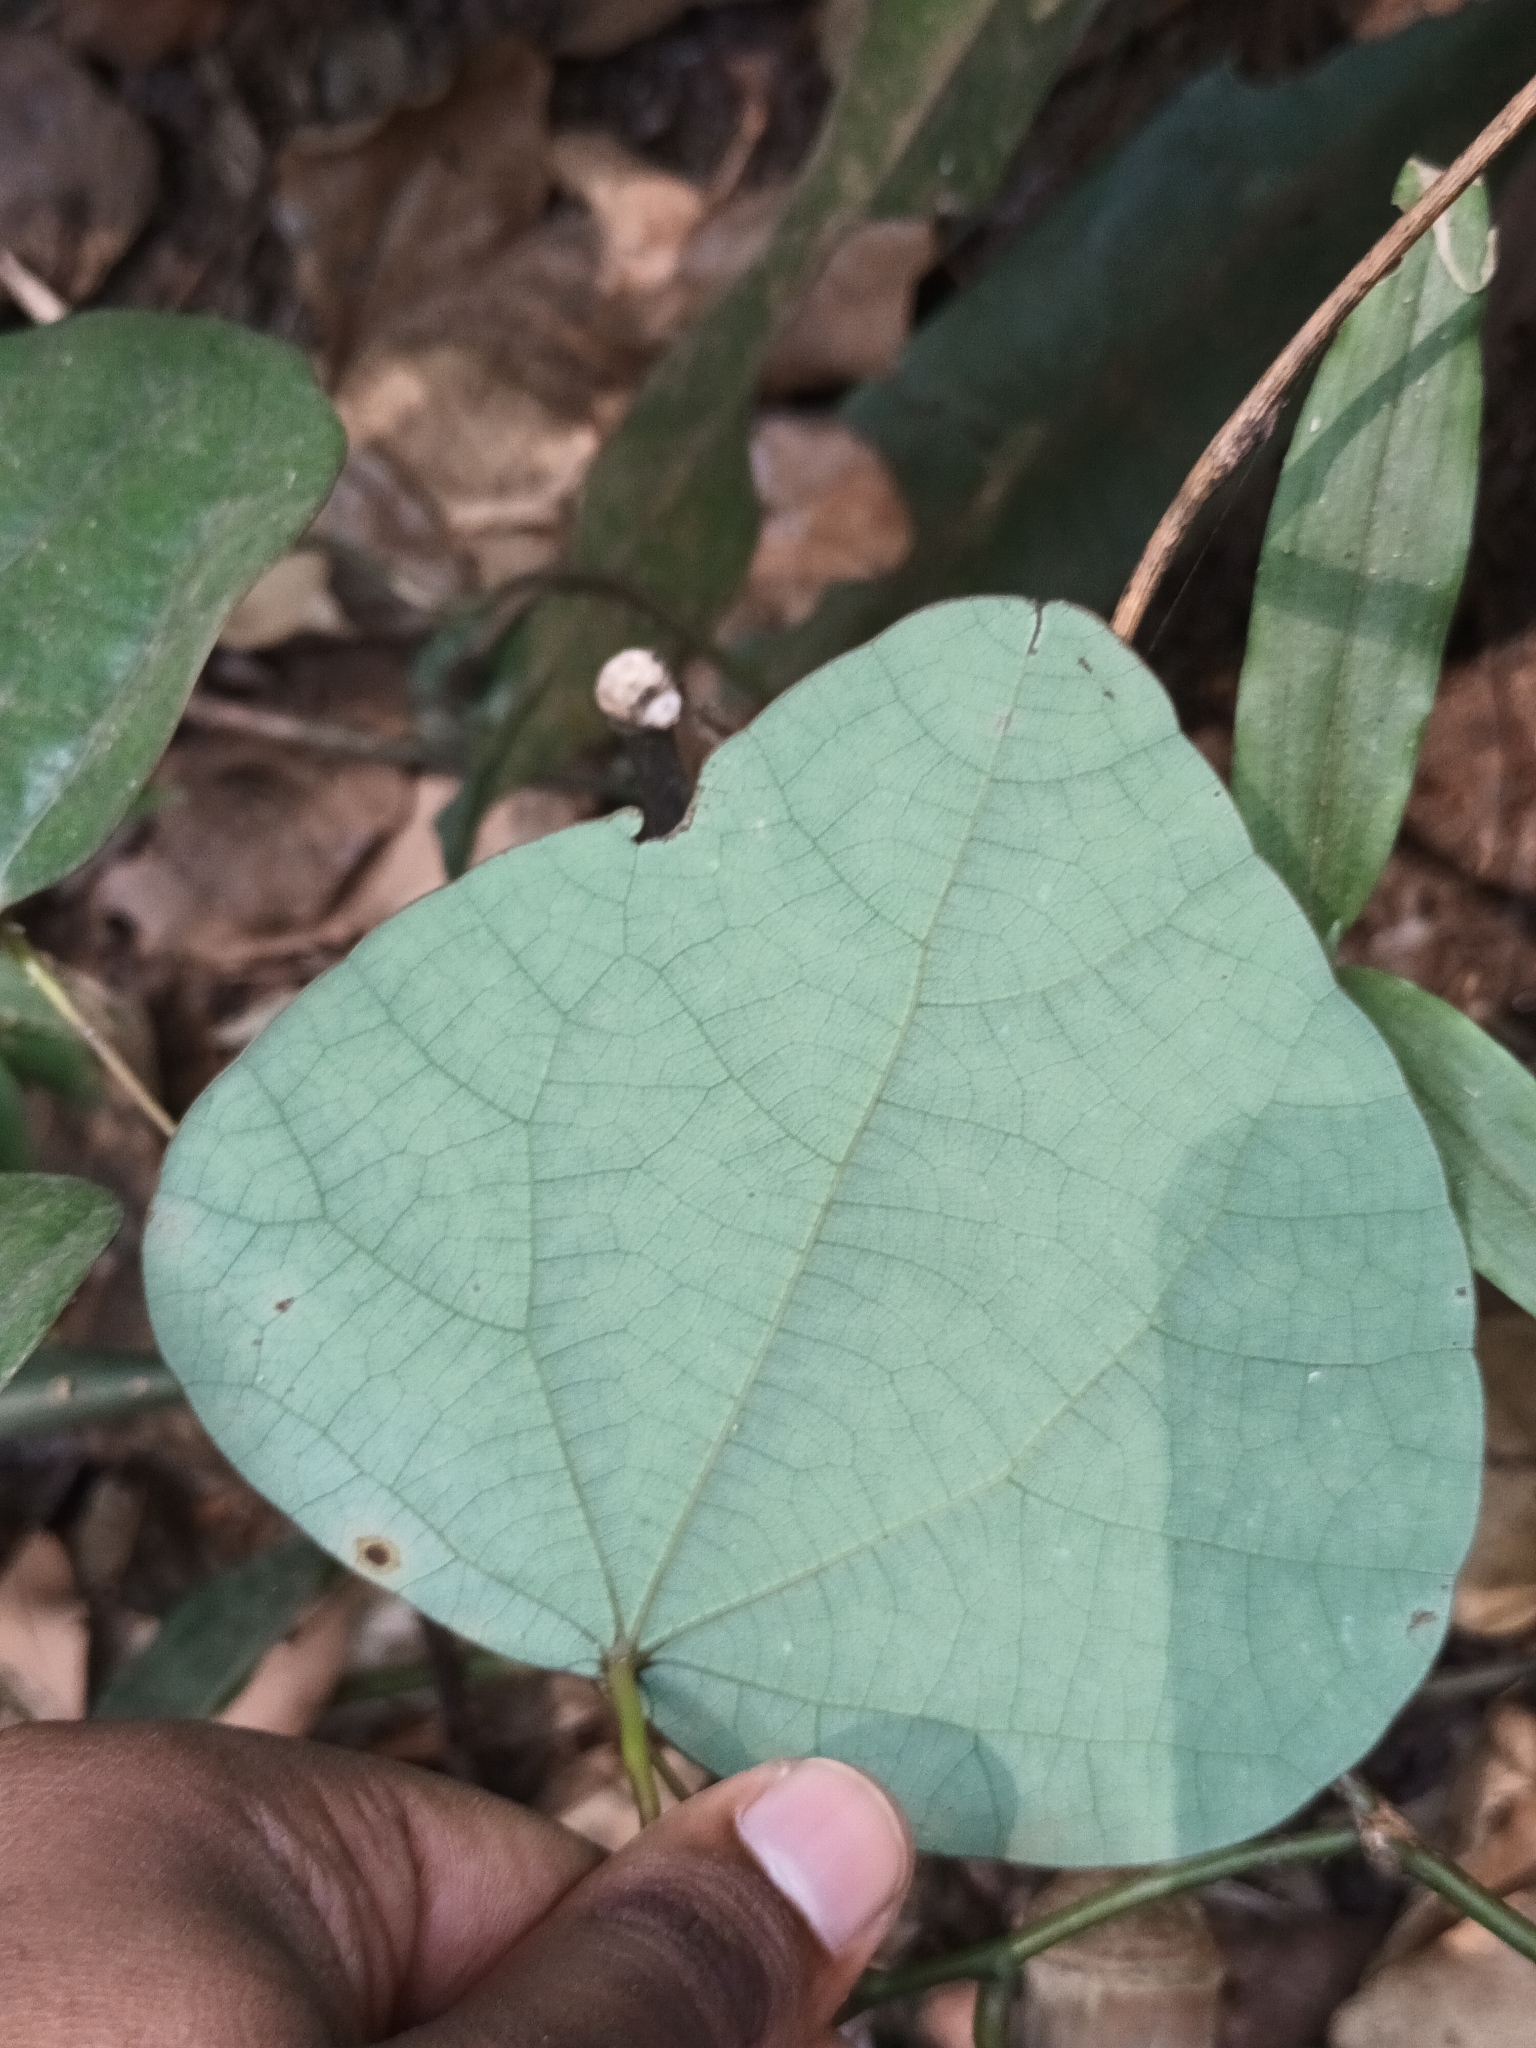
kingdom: Plantae
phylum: Tracheophyta
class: Magnoliopsida
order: Ranunculales
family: Menispermaceae
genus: Diploclisia
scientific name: Diploclisia glaucescens
